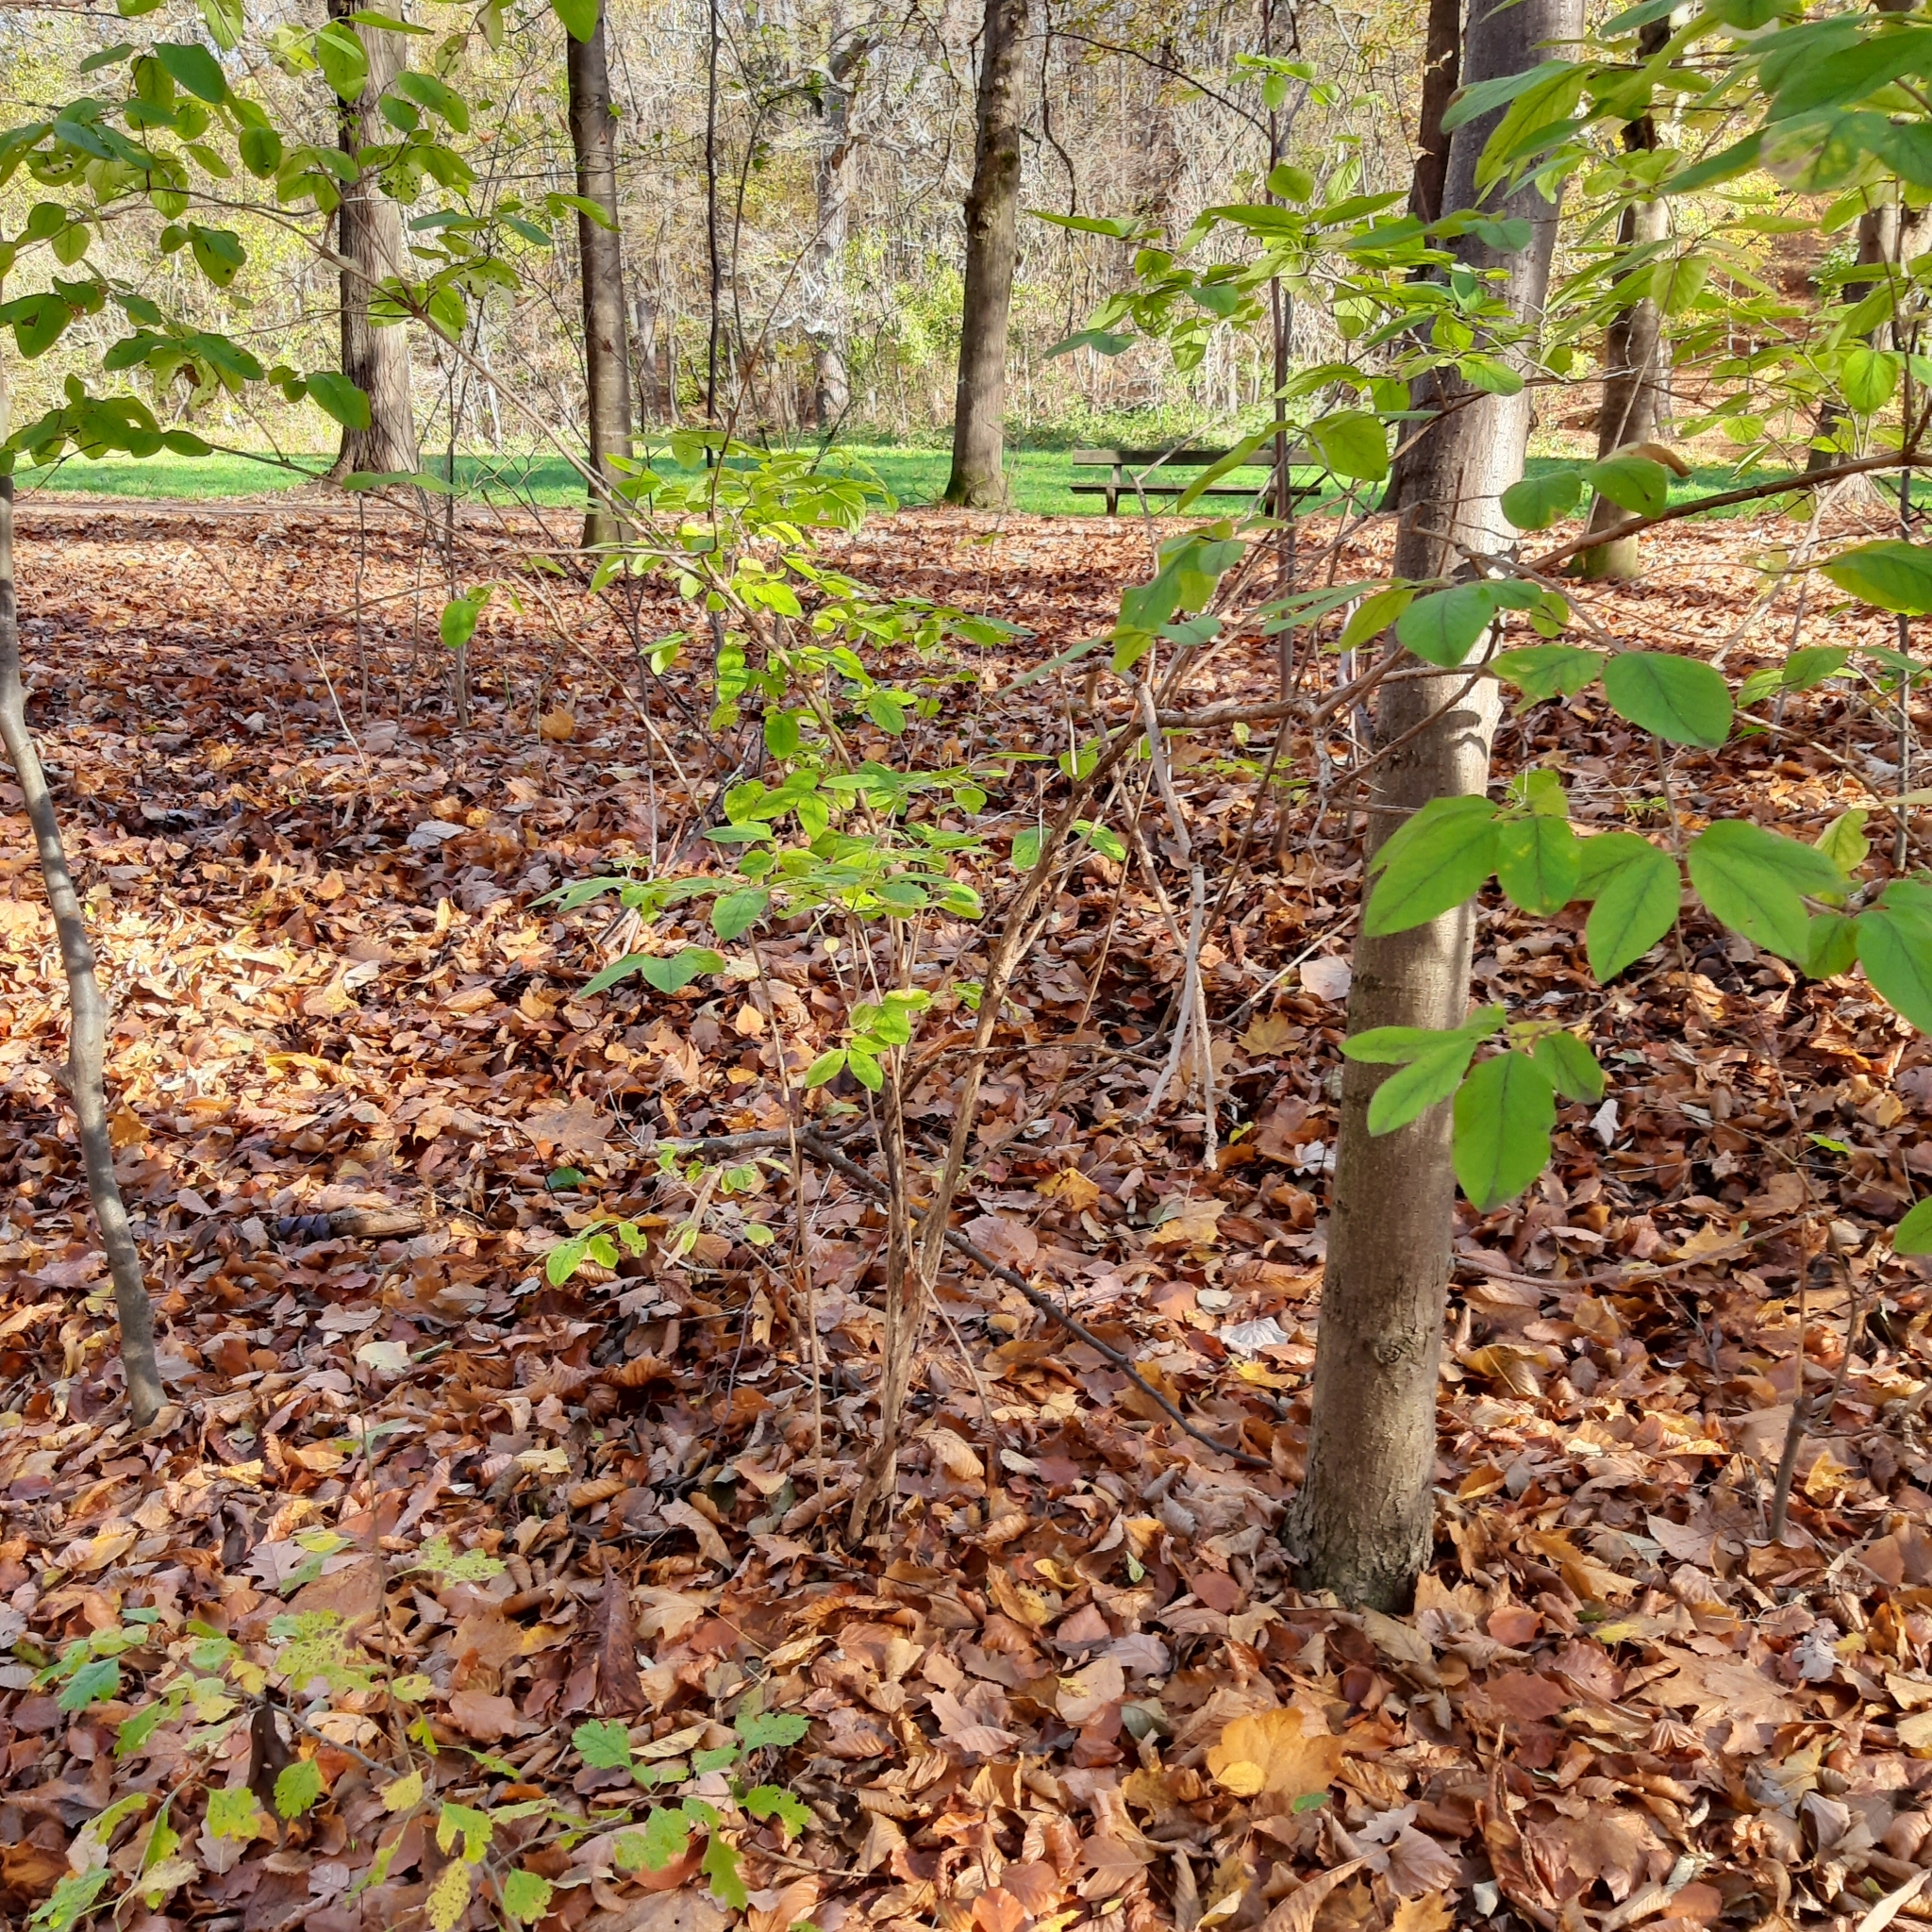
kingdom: Plantae
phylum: Tracheophyta
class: Magnoliopsida
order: Dipsacales
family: Caprifoliaceae
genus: Lonicera
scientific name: Lonicera xylosteum
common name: Fly honeysuckle
